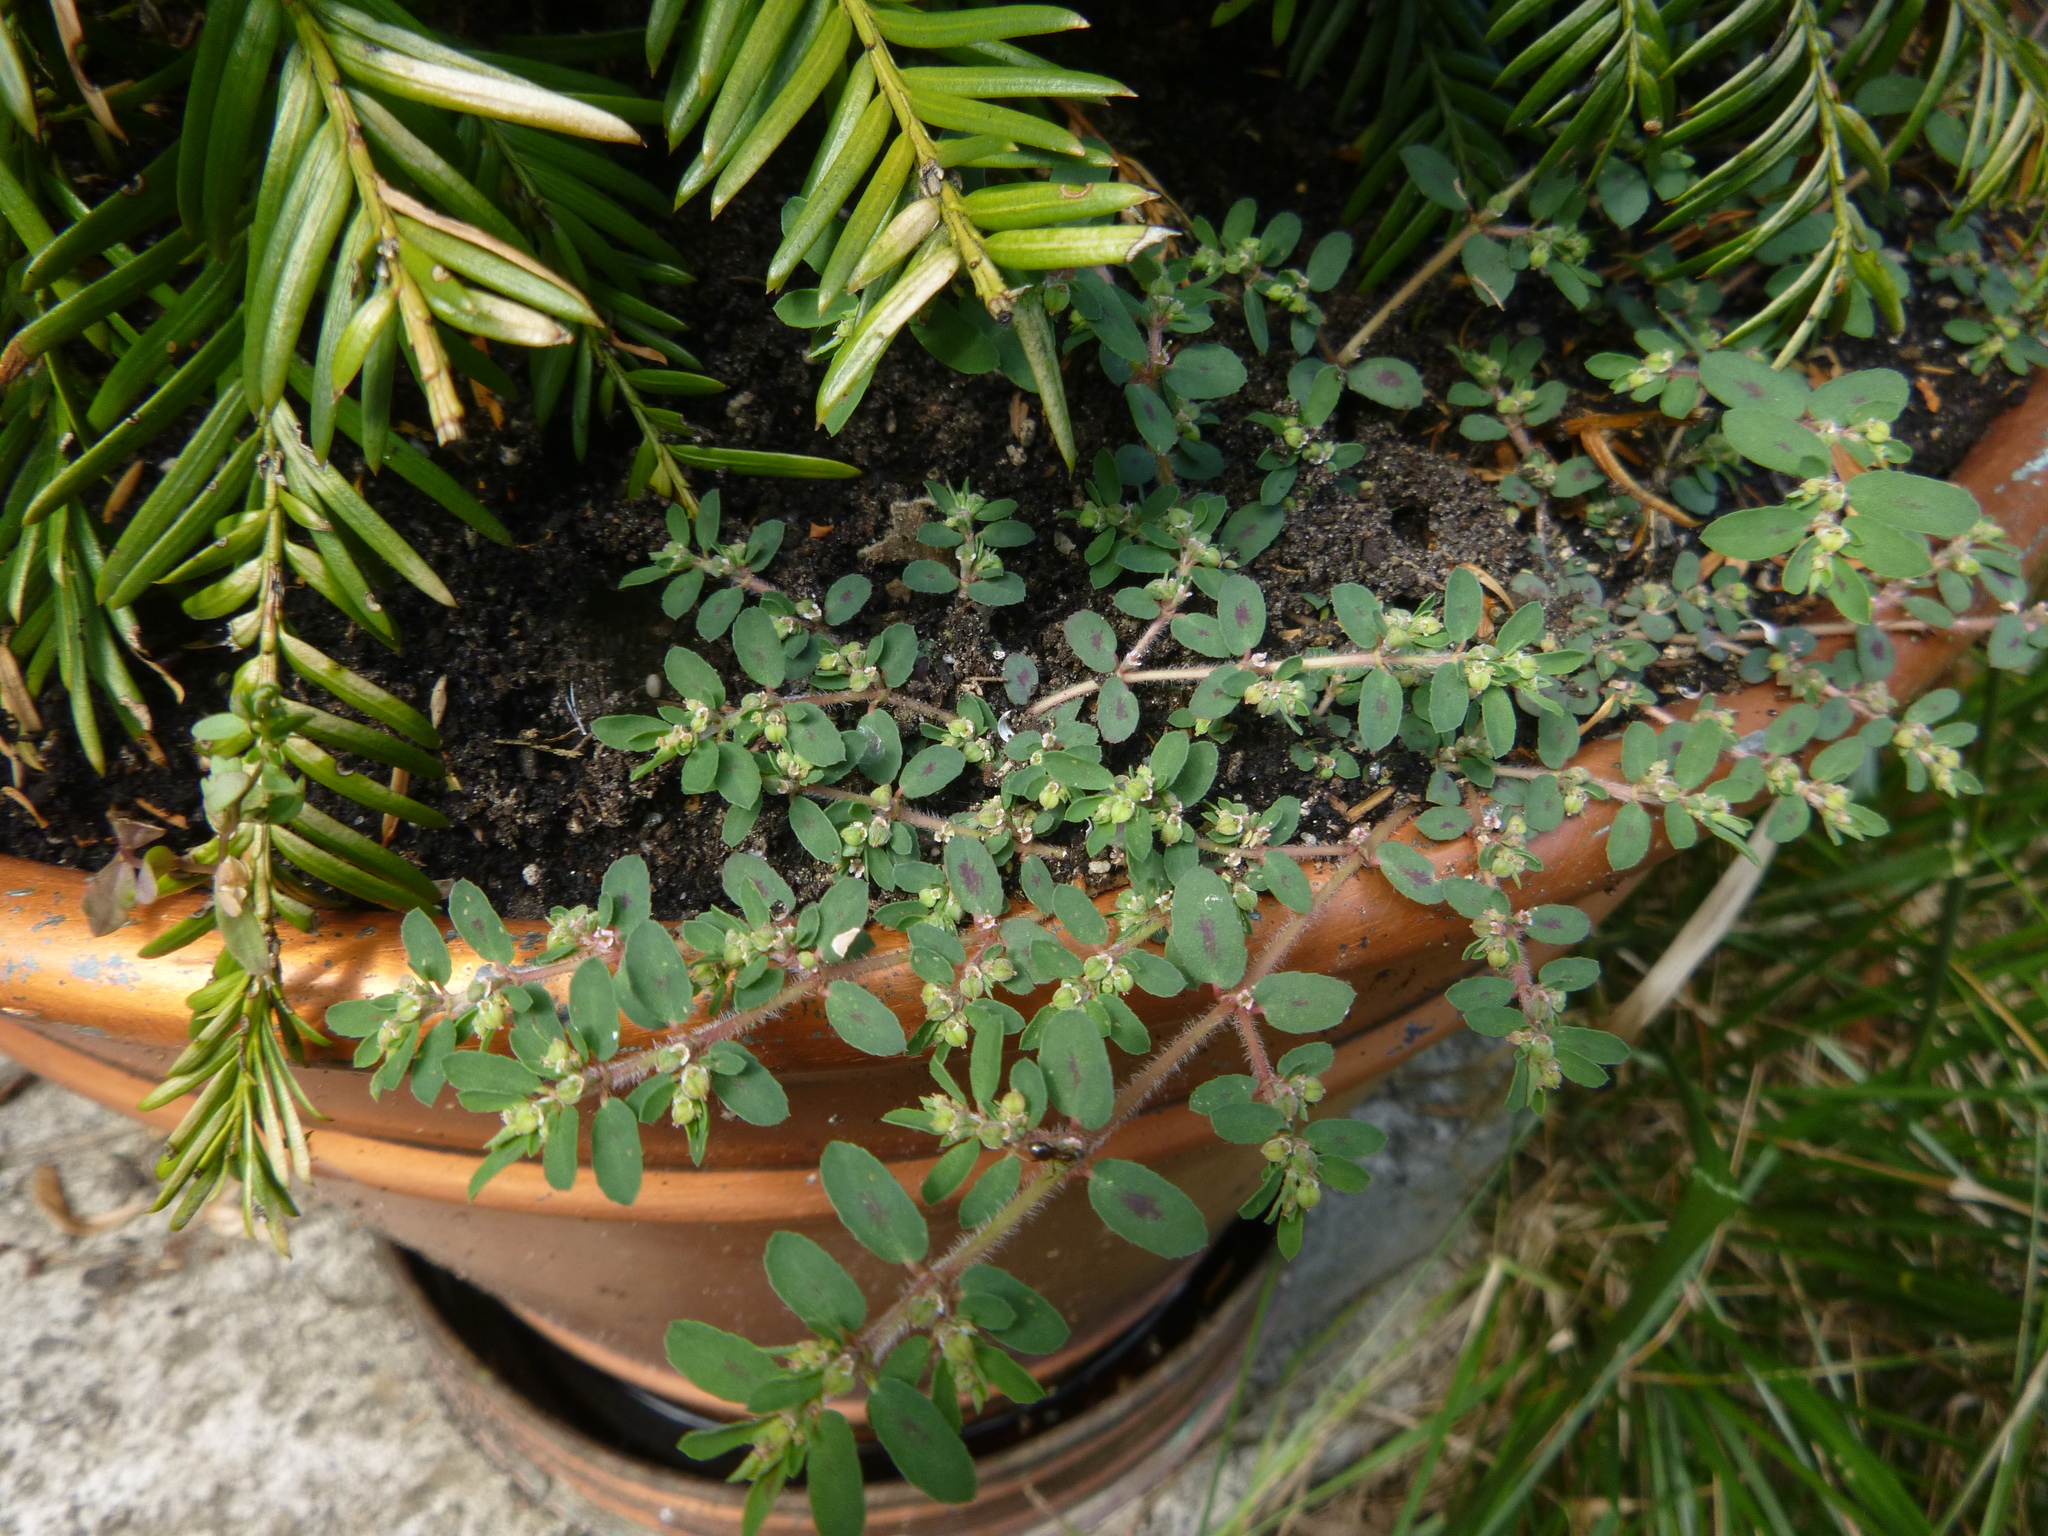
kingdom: Plantae
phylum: Tracheophyta
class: Magnoliopsida
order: Malpighiales
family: Euphorbiaceae
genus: Euphorbia
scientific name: Euphorbia maculata
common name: Spotted spurge
